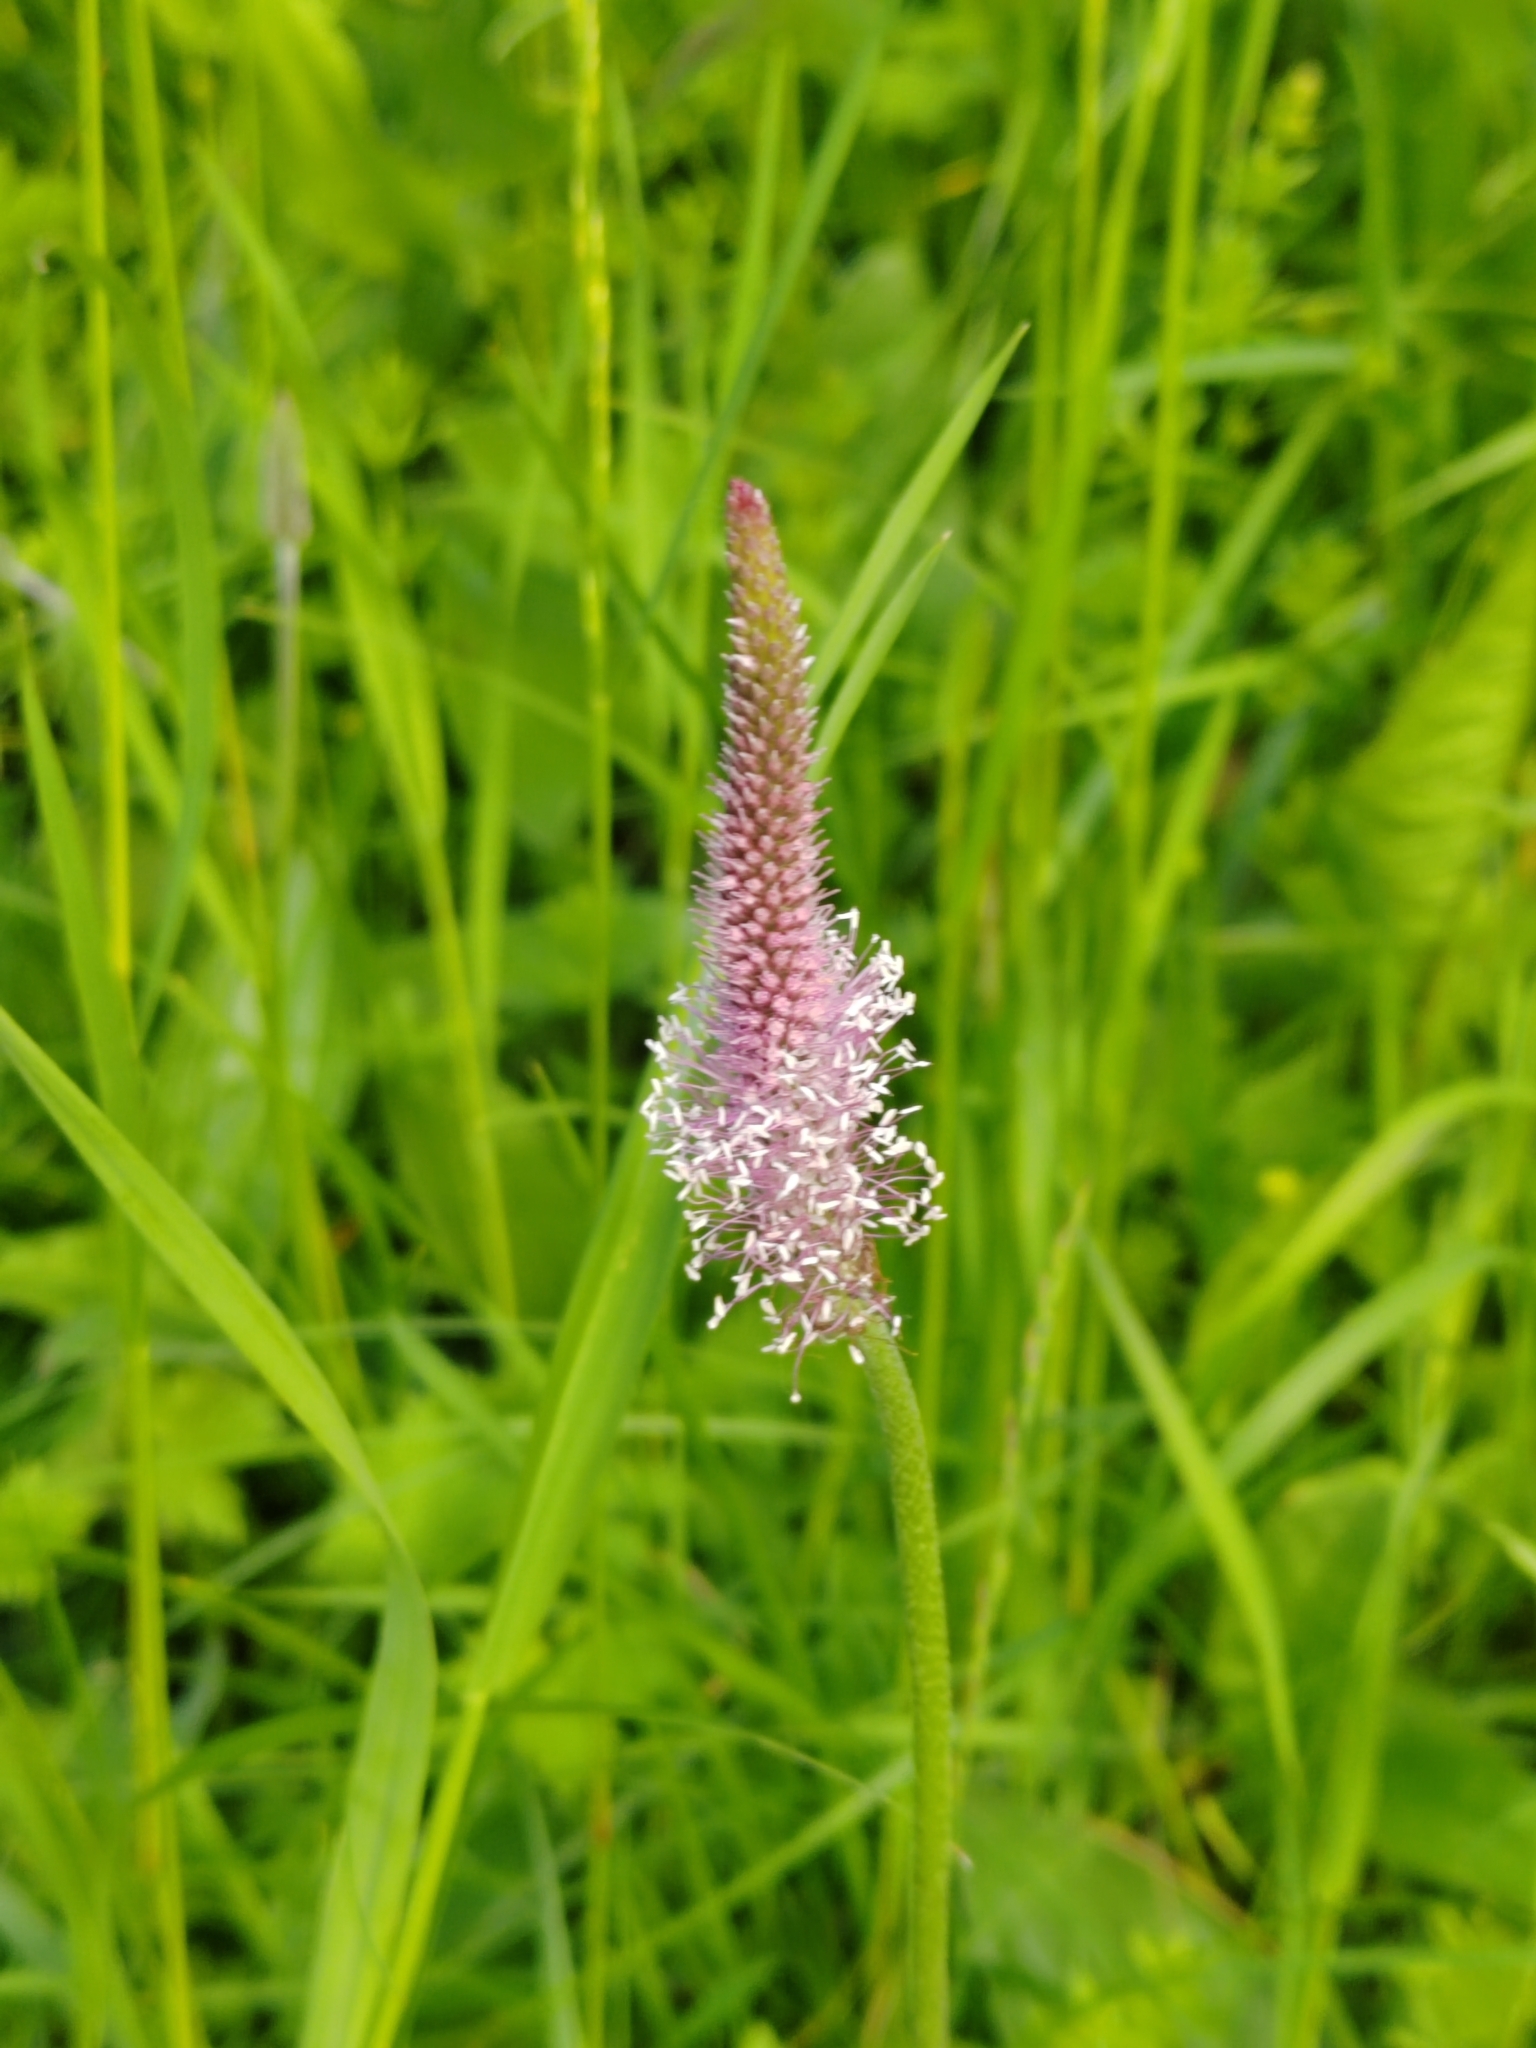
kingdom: Plantae
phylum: Tracheophyta
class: Magnoliopsida
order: Lamiales
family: Plantaginaceae
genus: Plantago
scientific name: Plantago media
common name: Hoary plantain
